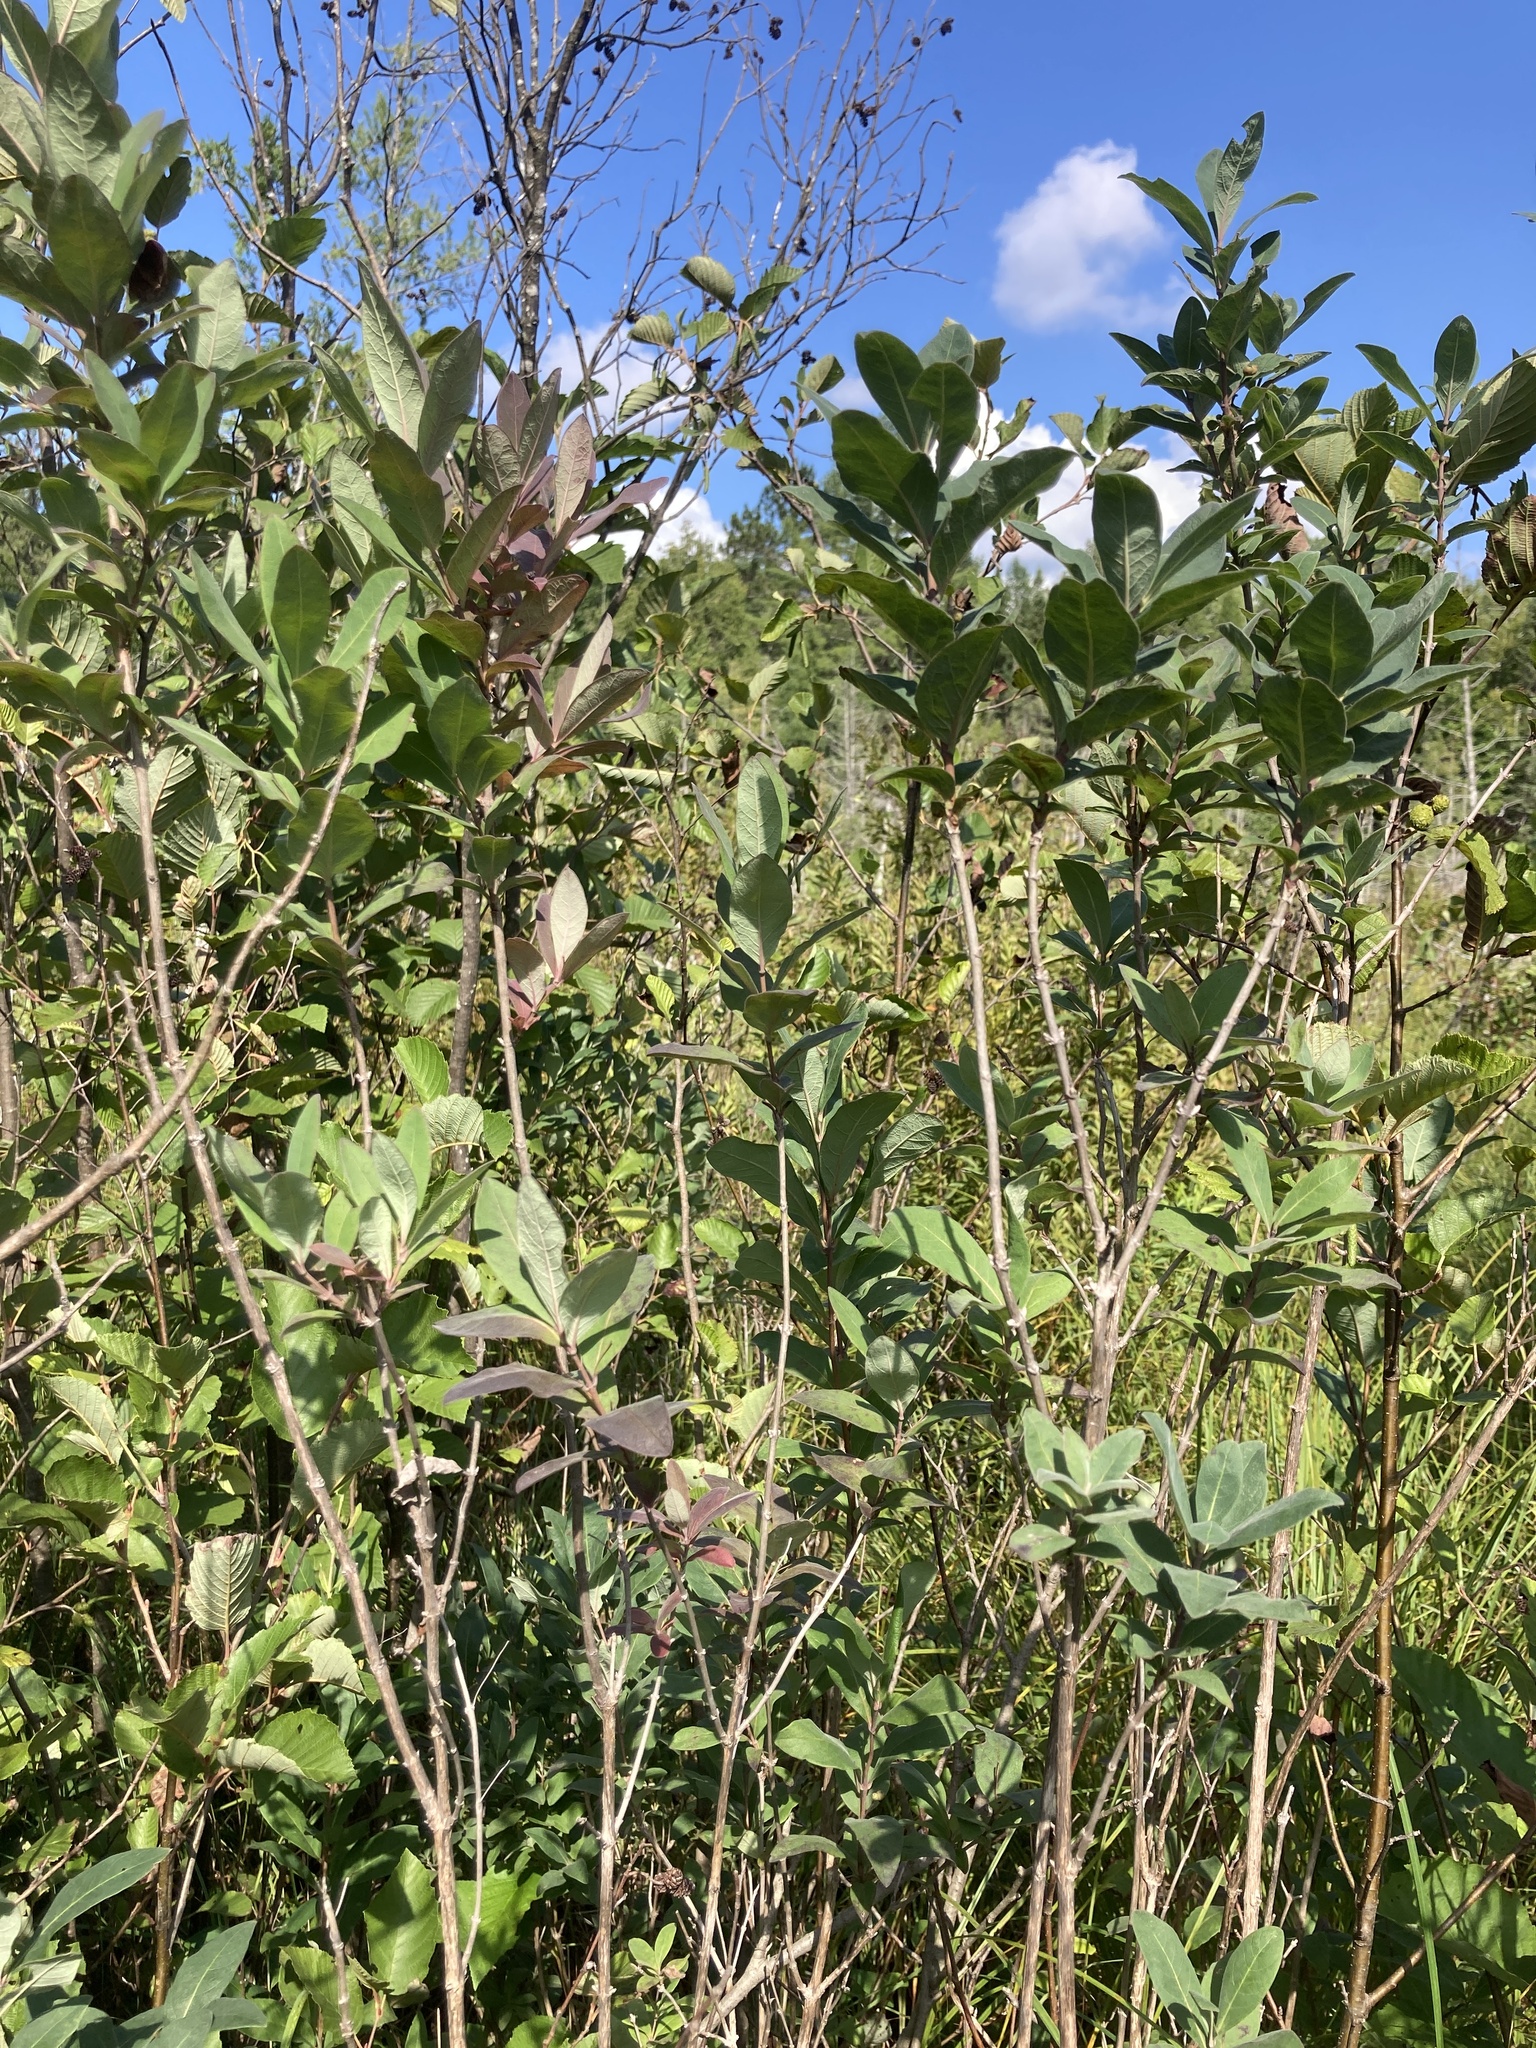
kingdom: Plantae
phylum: Tracheophyta
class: Magnoliopsida
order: Dipsacales
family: Caprifoliaceae
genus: Lonicera
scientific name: Lonicera oblongifolia
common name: Swamp fly honeysuckle
